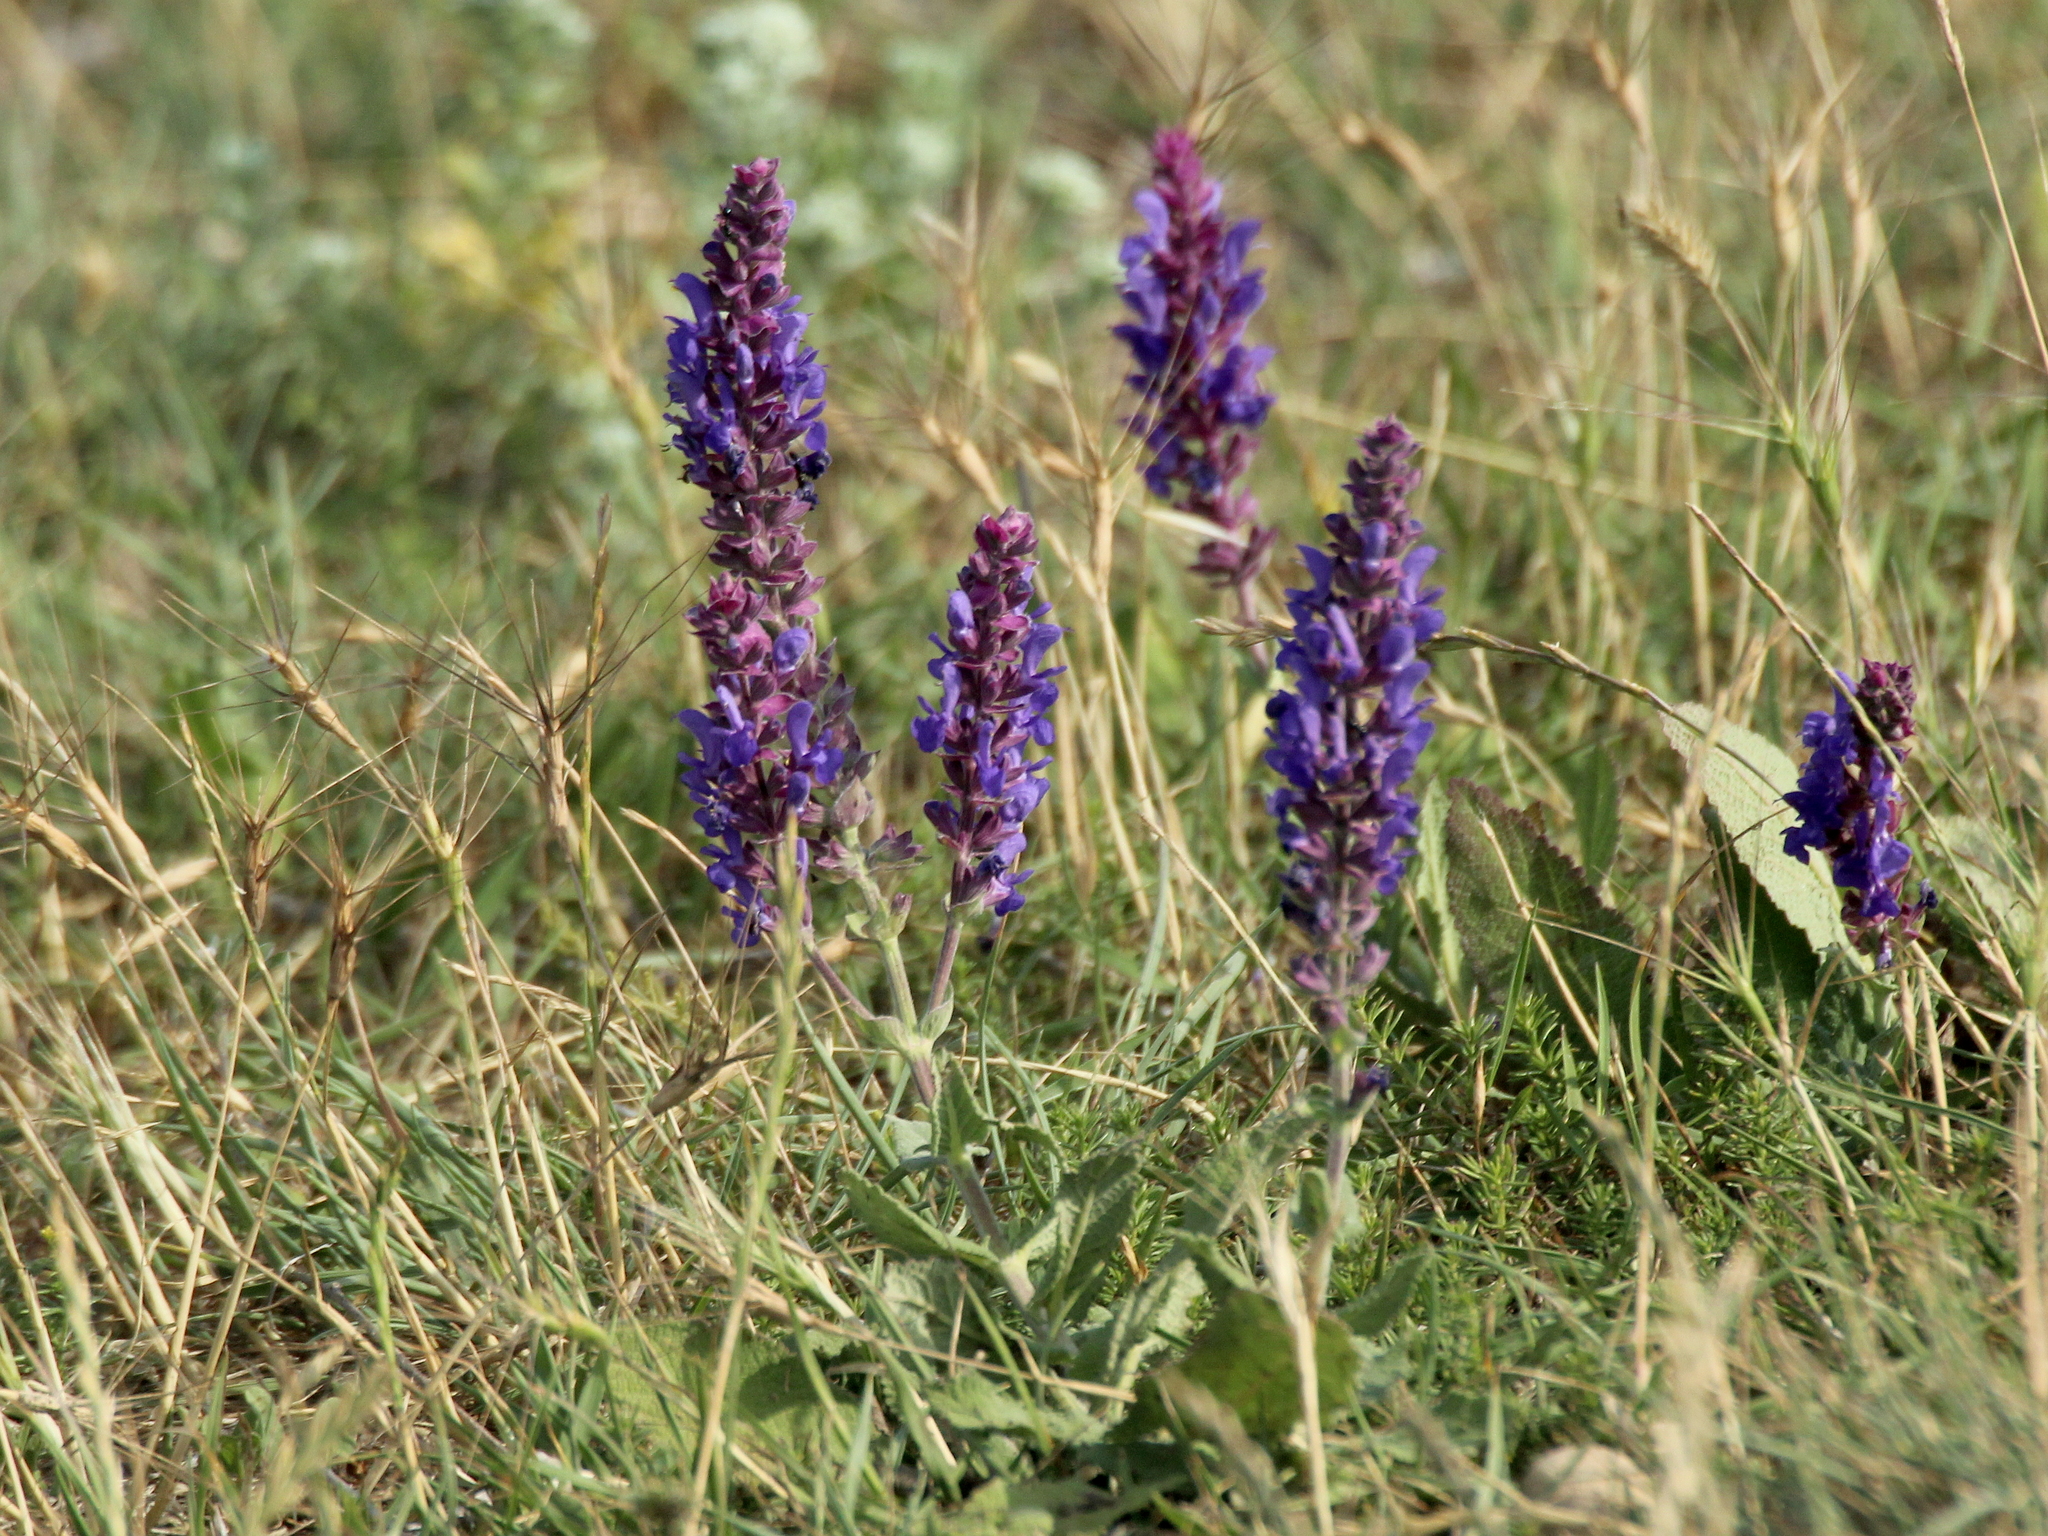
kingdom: Plantae
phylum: Tracheophyta
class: Magnoliopsida
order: Lamiales
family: Lamiaceae
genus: Salvia
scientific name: Salvia nemorosa
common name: Balkan clary
